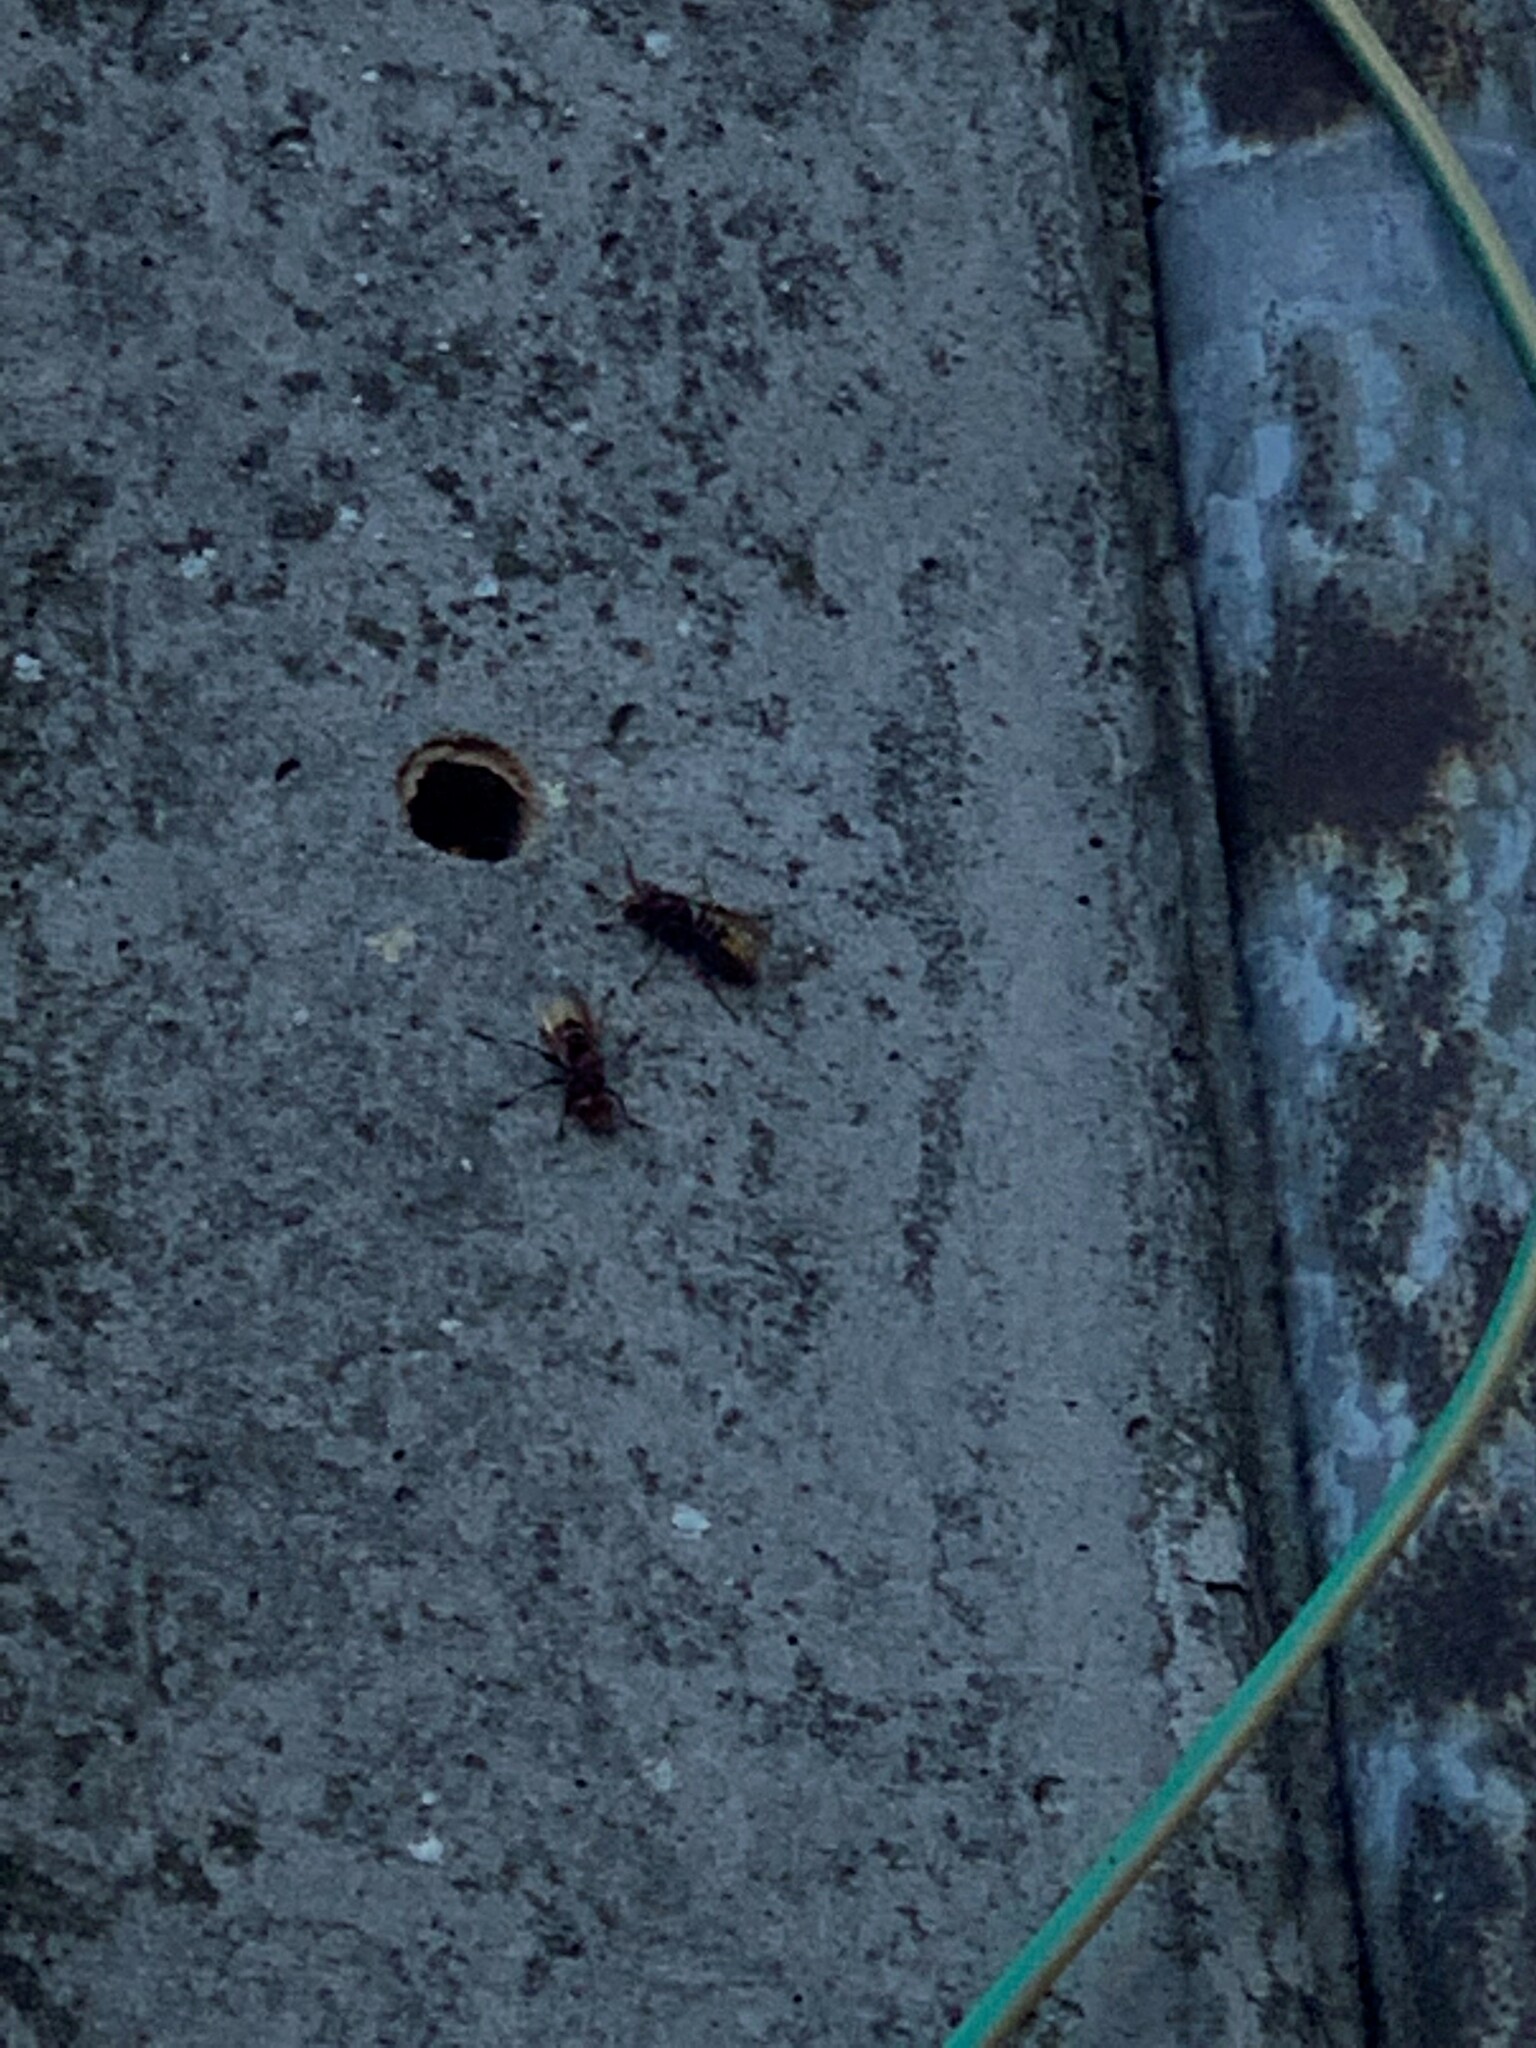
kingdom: Animalia
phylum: Arthropoda
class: Insecta
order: Hymenoptera
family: Vespidae
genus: Vespa
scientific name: Vespa crabro
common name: Hornet
